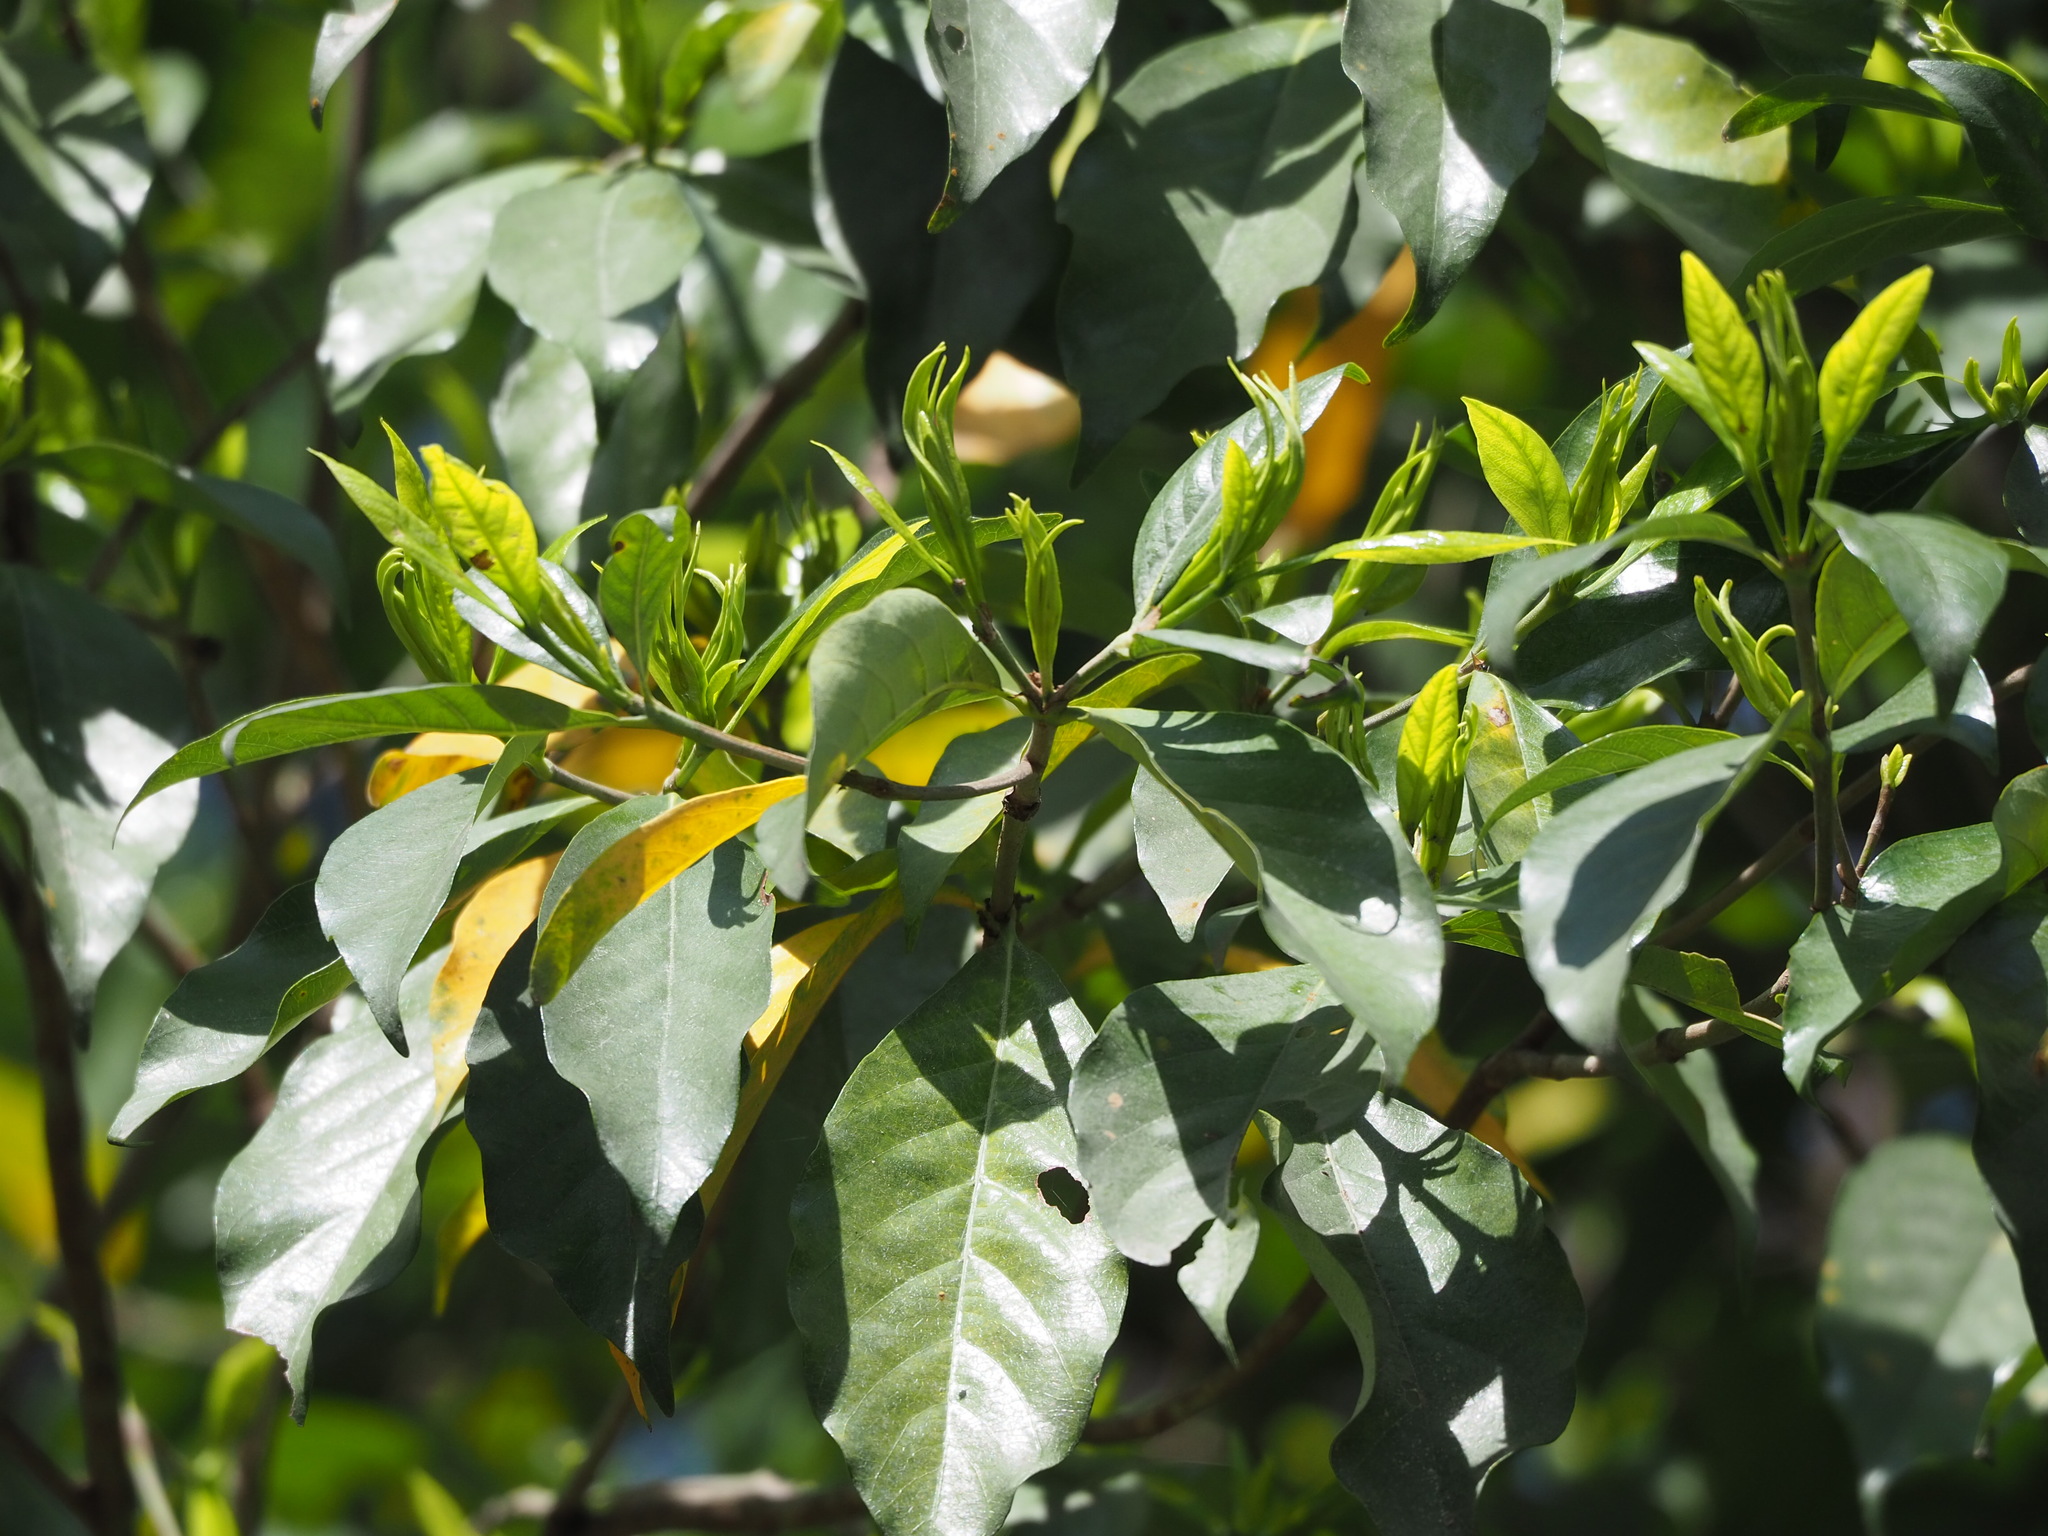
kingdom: Plantae
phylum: Tracheophyta
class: Magnoliopsida
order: Gentianales
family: Rubiaceae
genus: Gardenia
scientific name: Gardenia jasminoides
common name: Cape-jasmine
